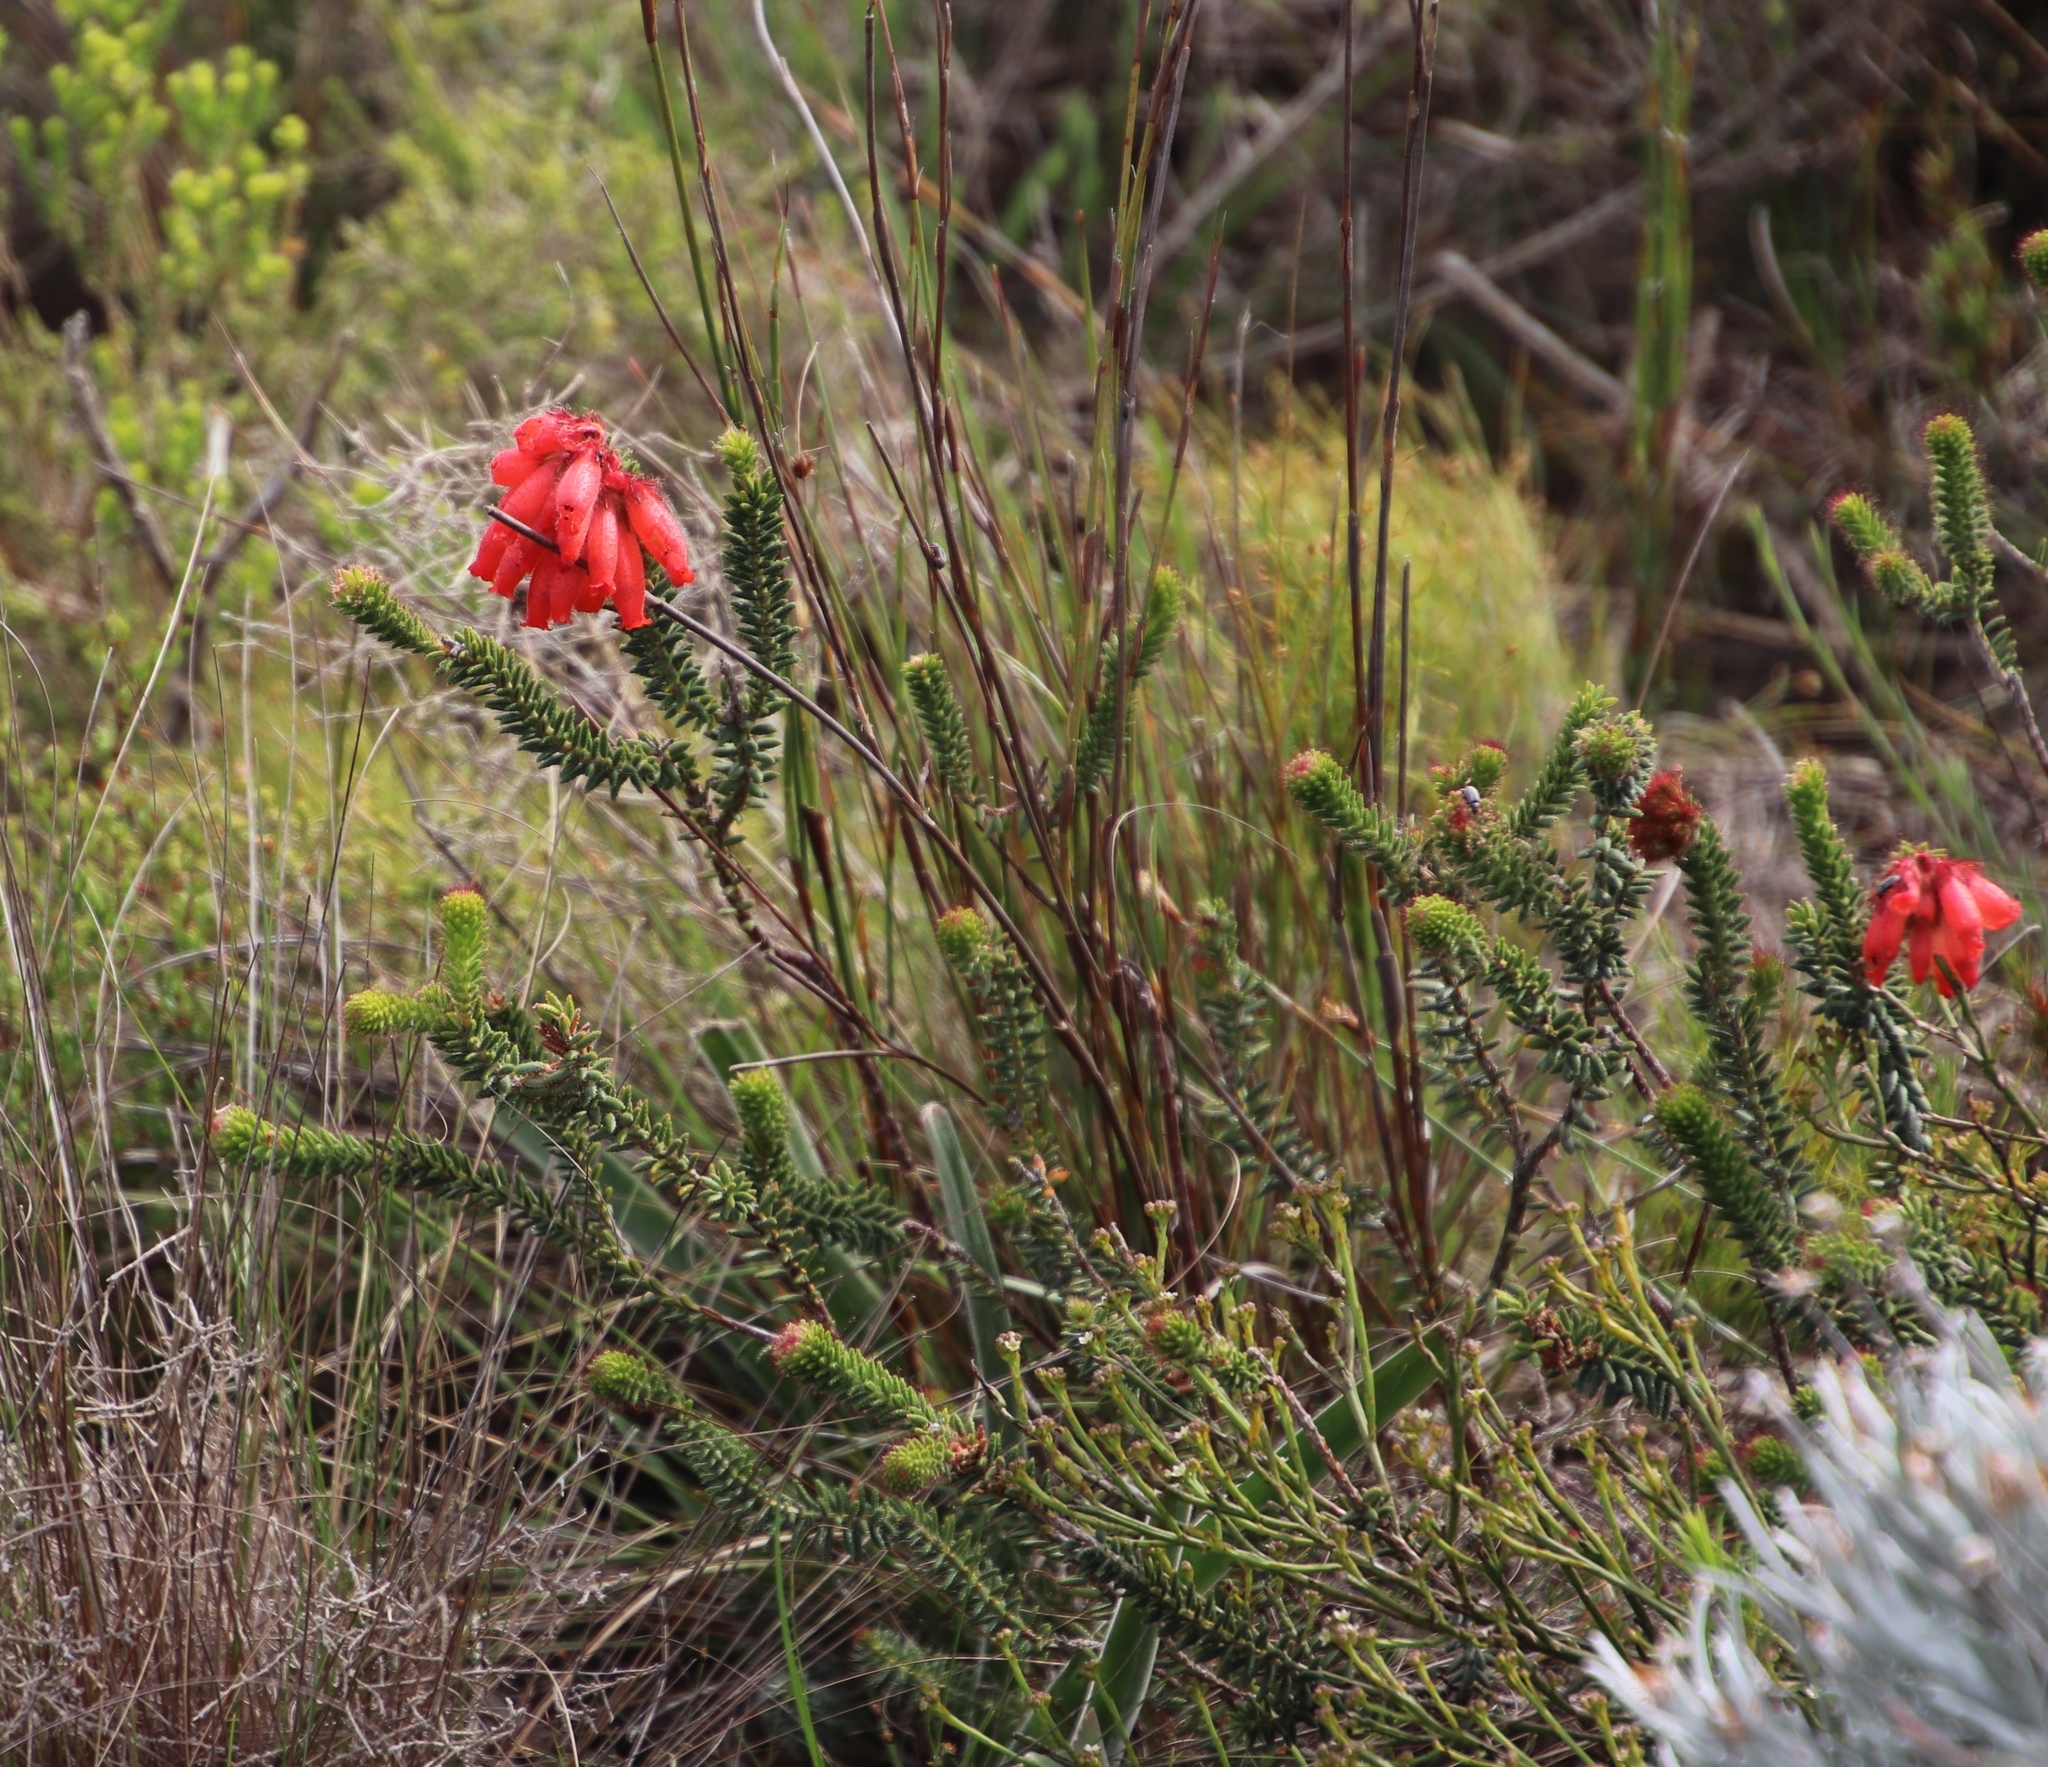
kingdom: Plantae
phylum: Tracheophyta
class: Magnoliopsida
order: Ericales
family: Ericaceae
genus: Erica
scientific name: Erica cerinthoides
